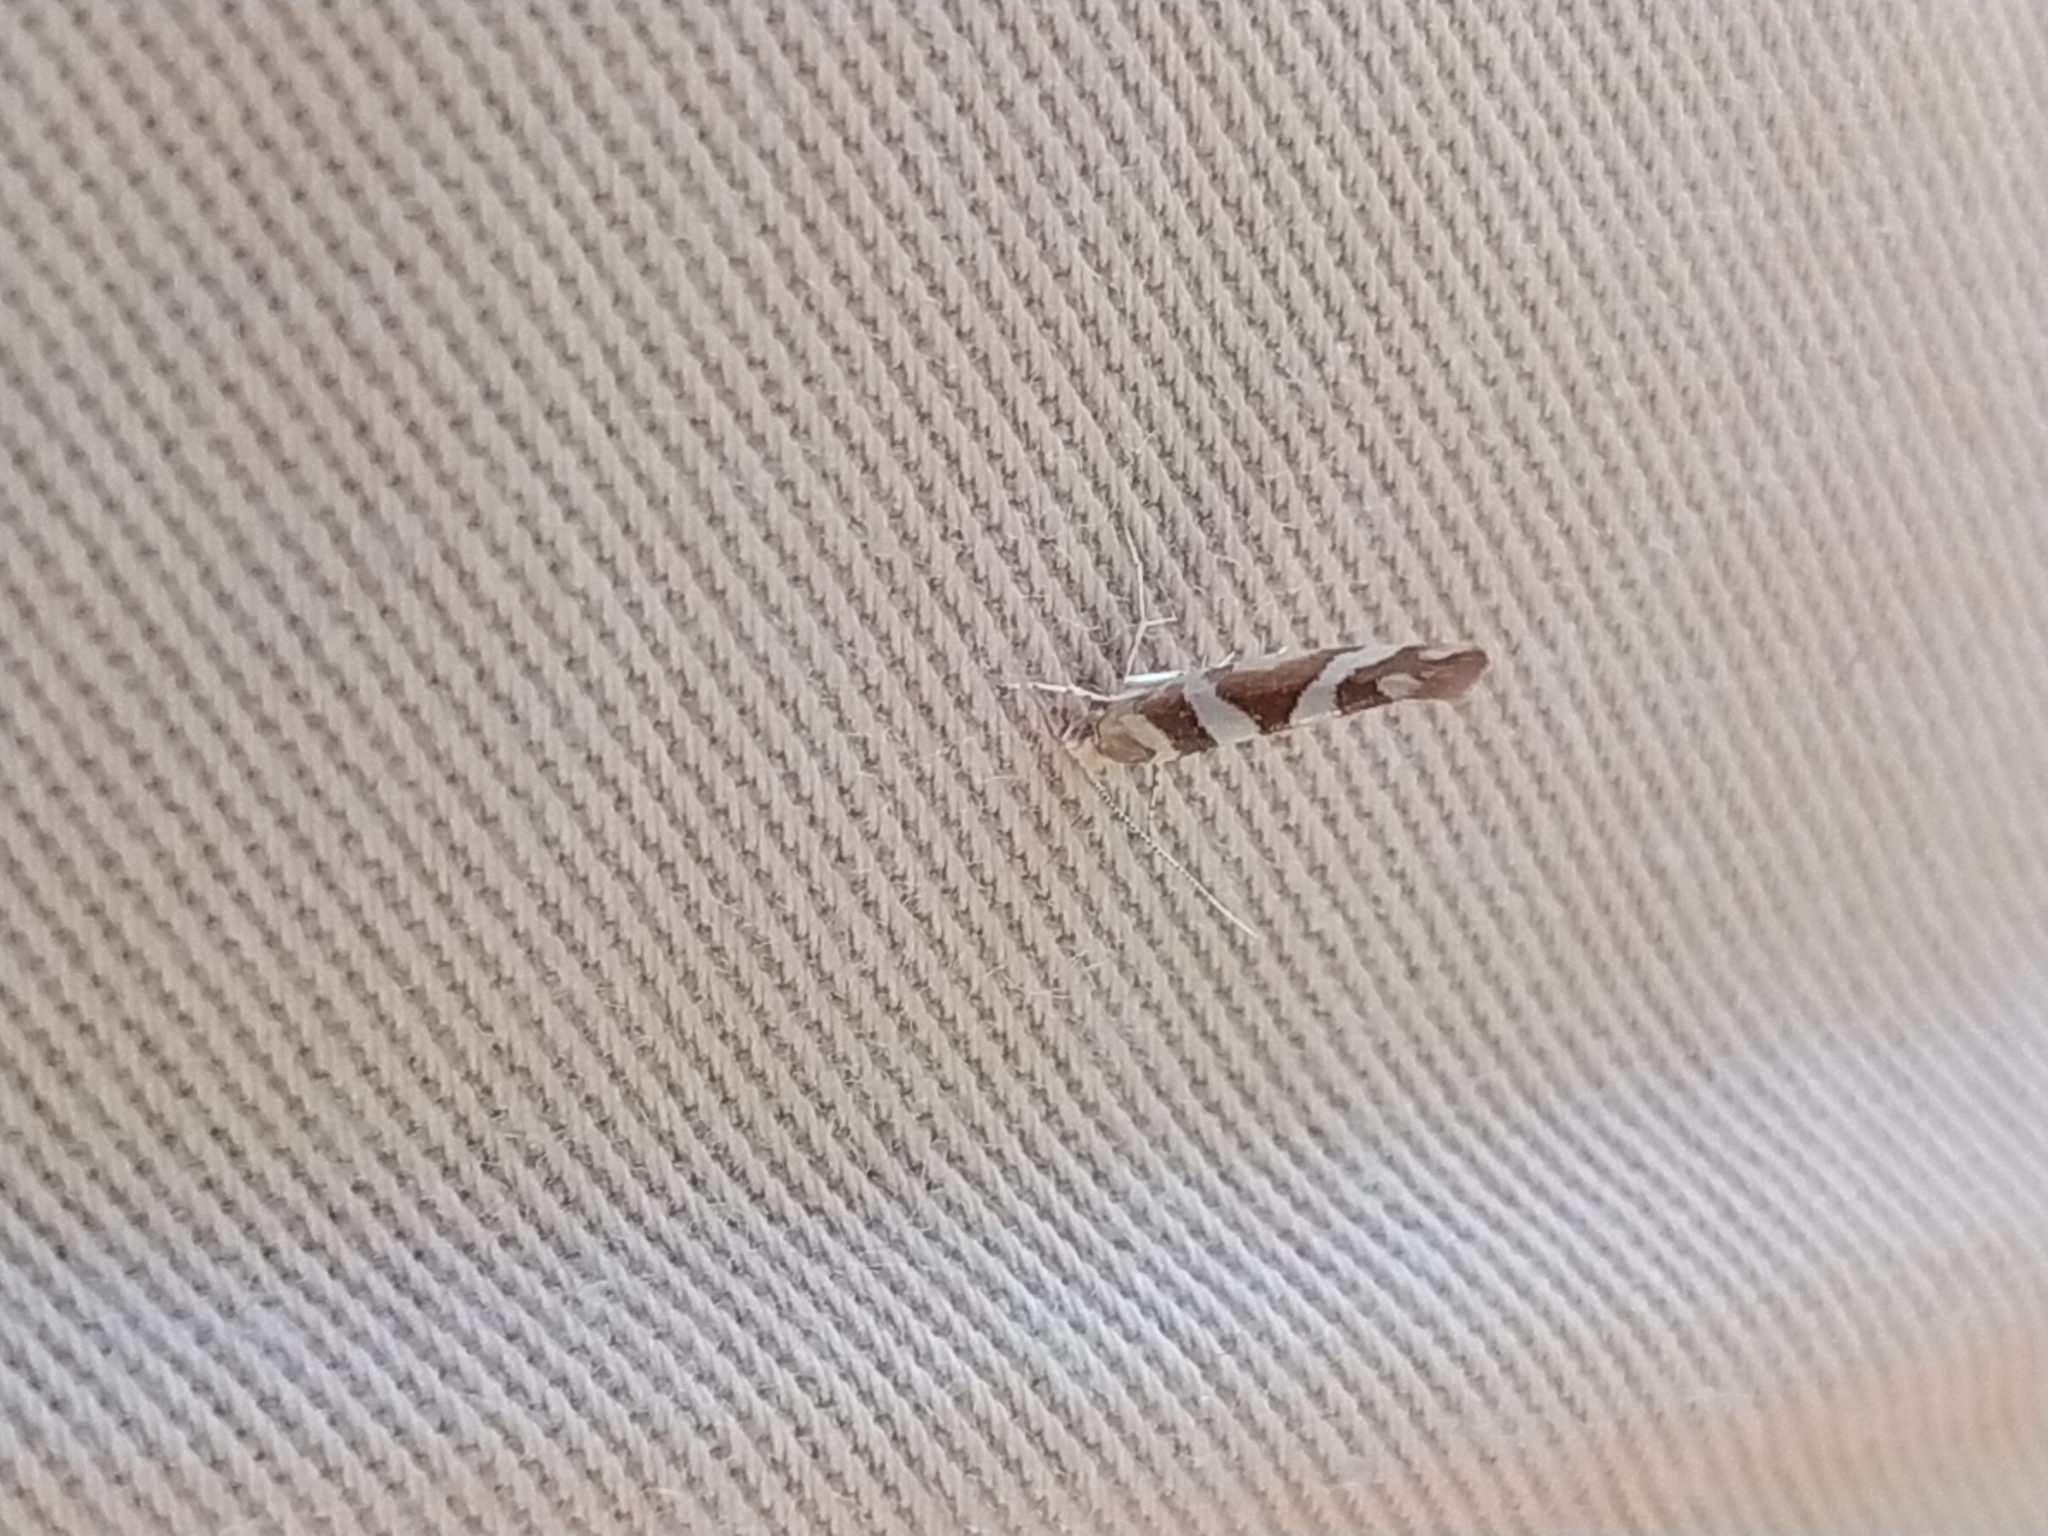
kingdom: Animalia
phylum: Arthropoda
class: Insecta
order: Lepidoptera
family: Argyresthiidae
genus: Argyresthia
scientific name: Argyresthia goedartella
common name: Golden argent
